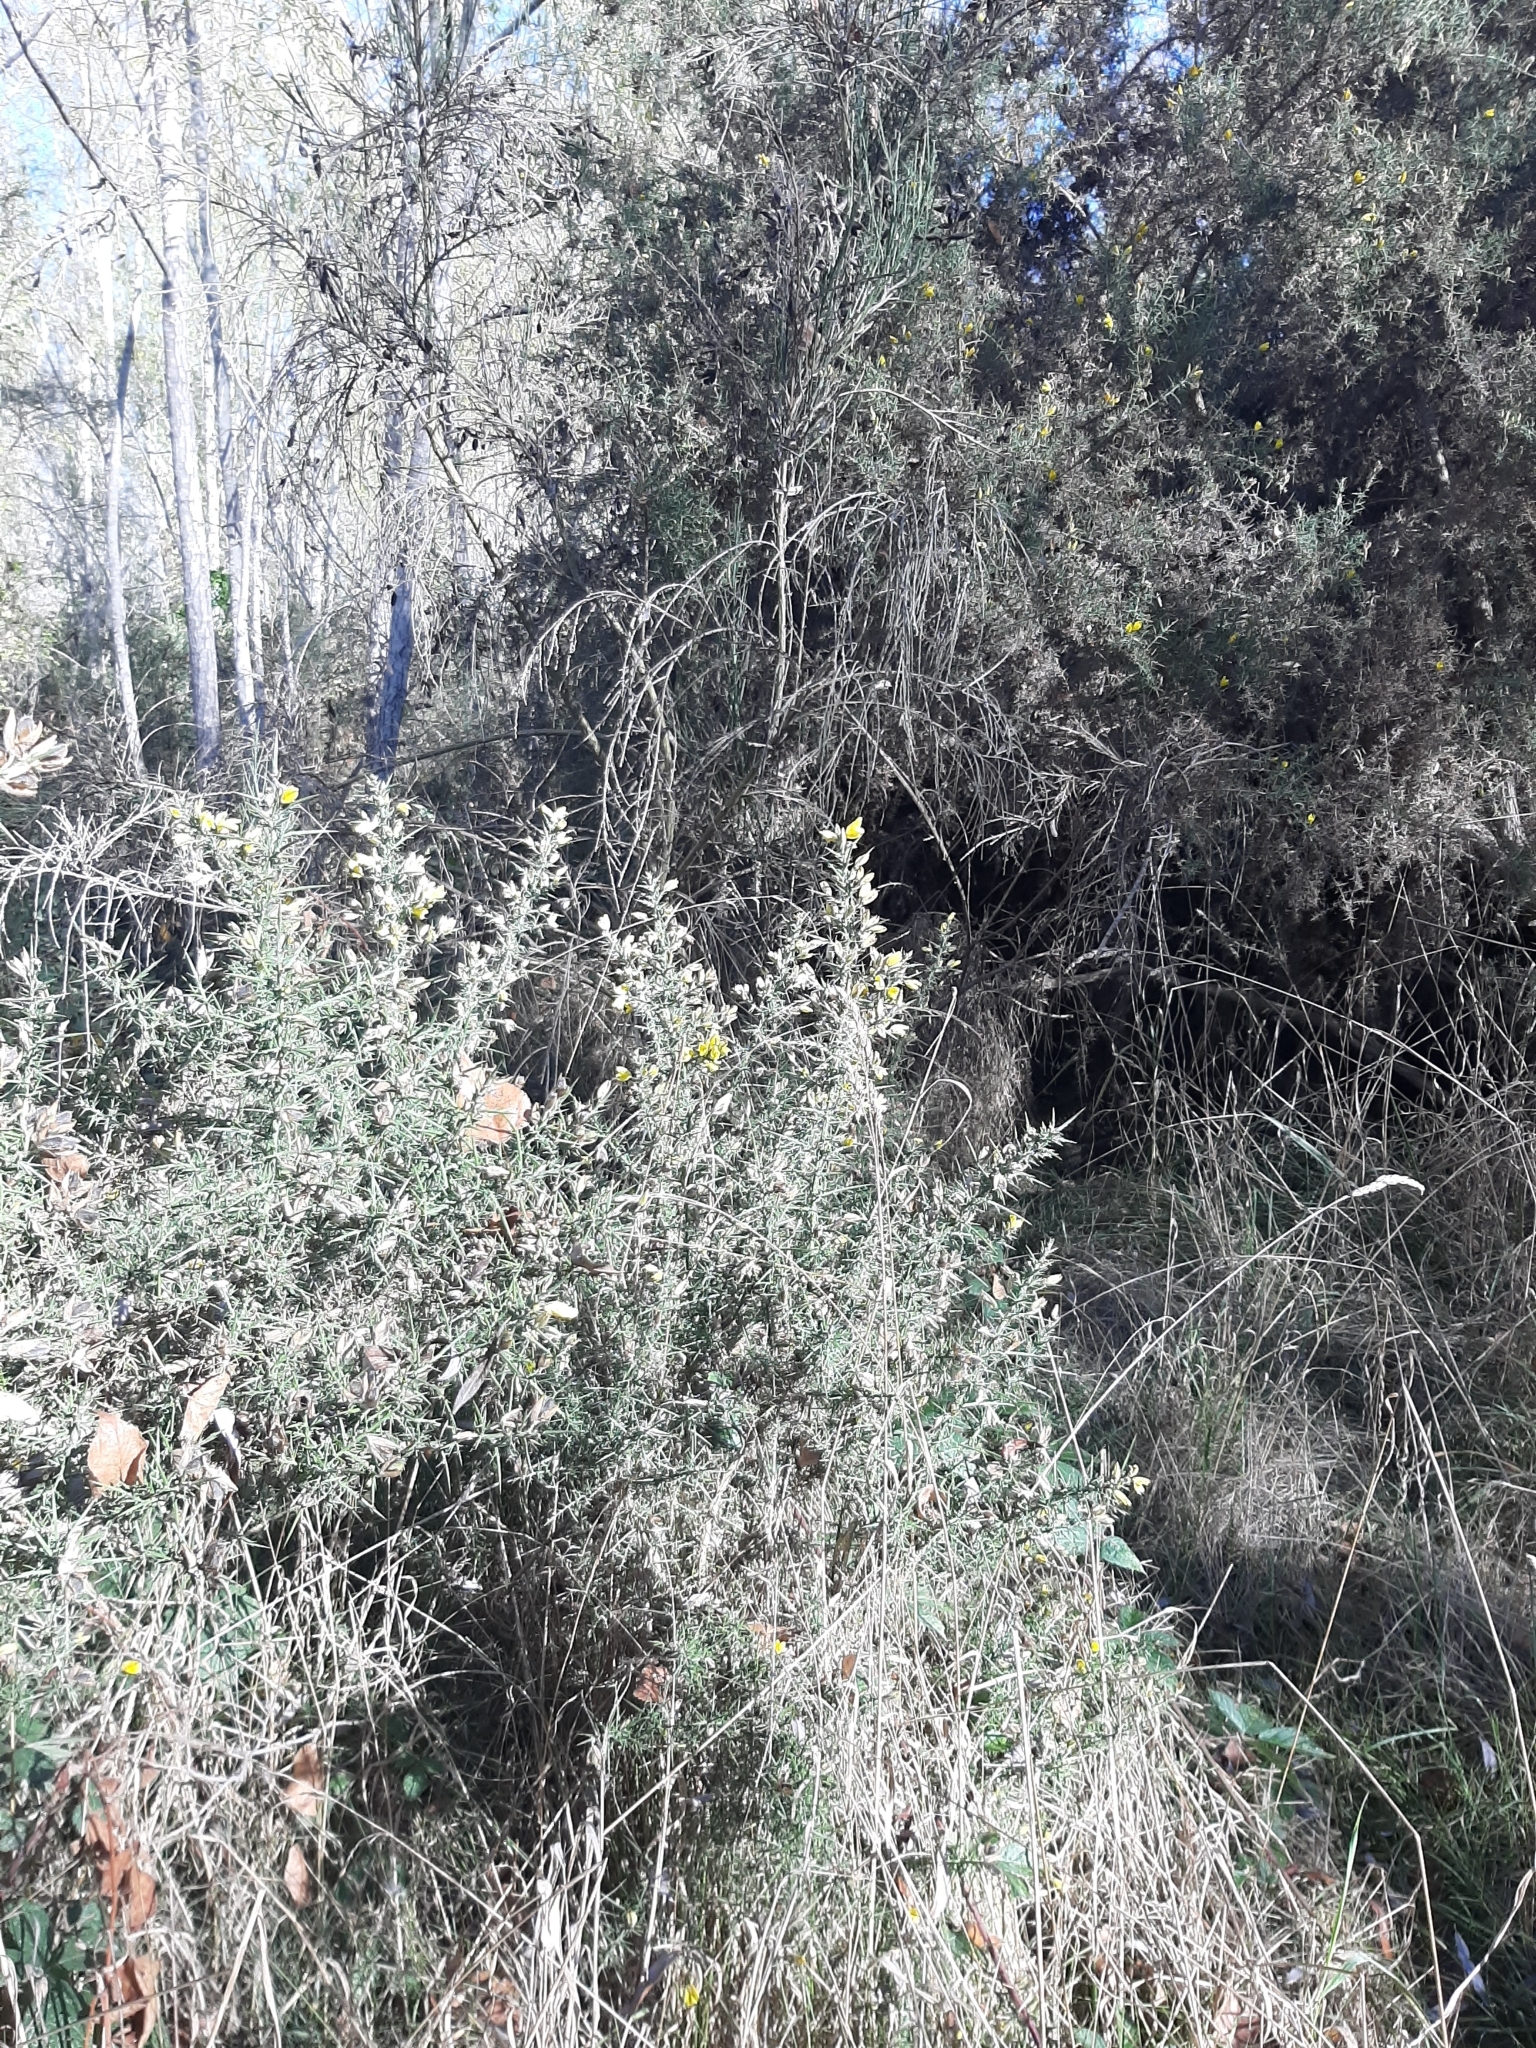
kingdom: Plantae
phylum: Tracheophyta
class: Magnoliopsida
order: Fabales
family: Fabaceae
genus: Ulex
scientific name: Ulex europaeus
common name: Common gorse
